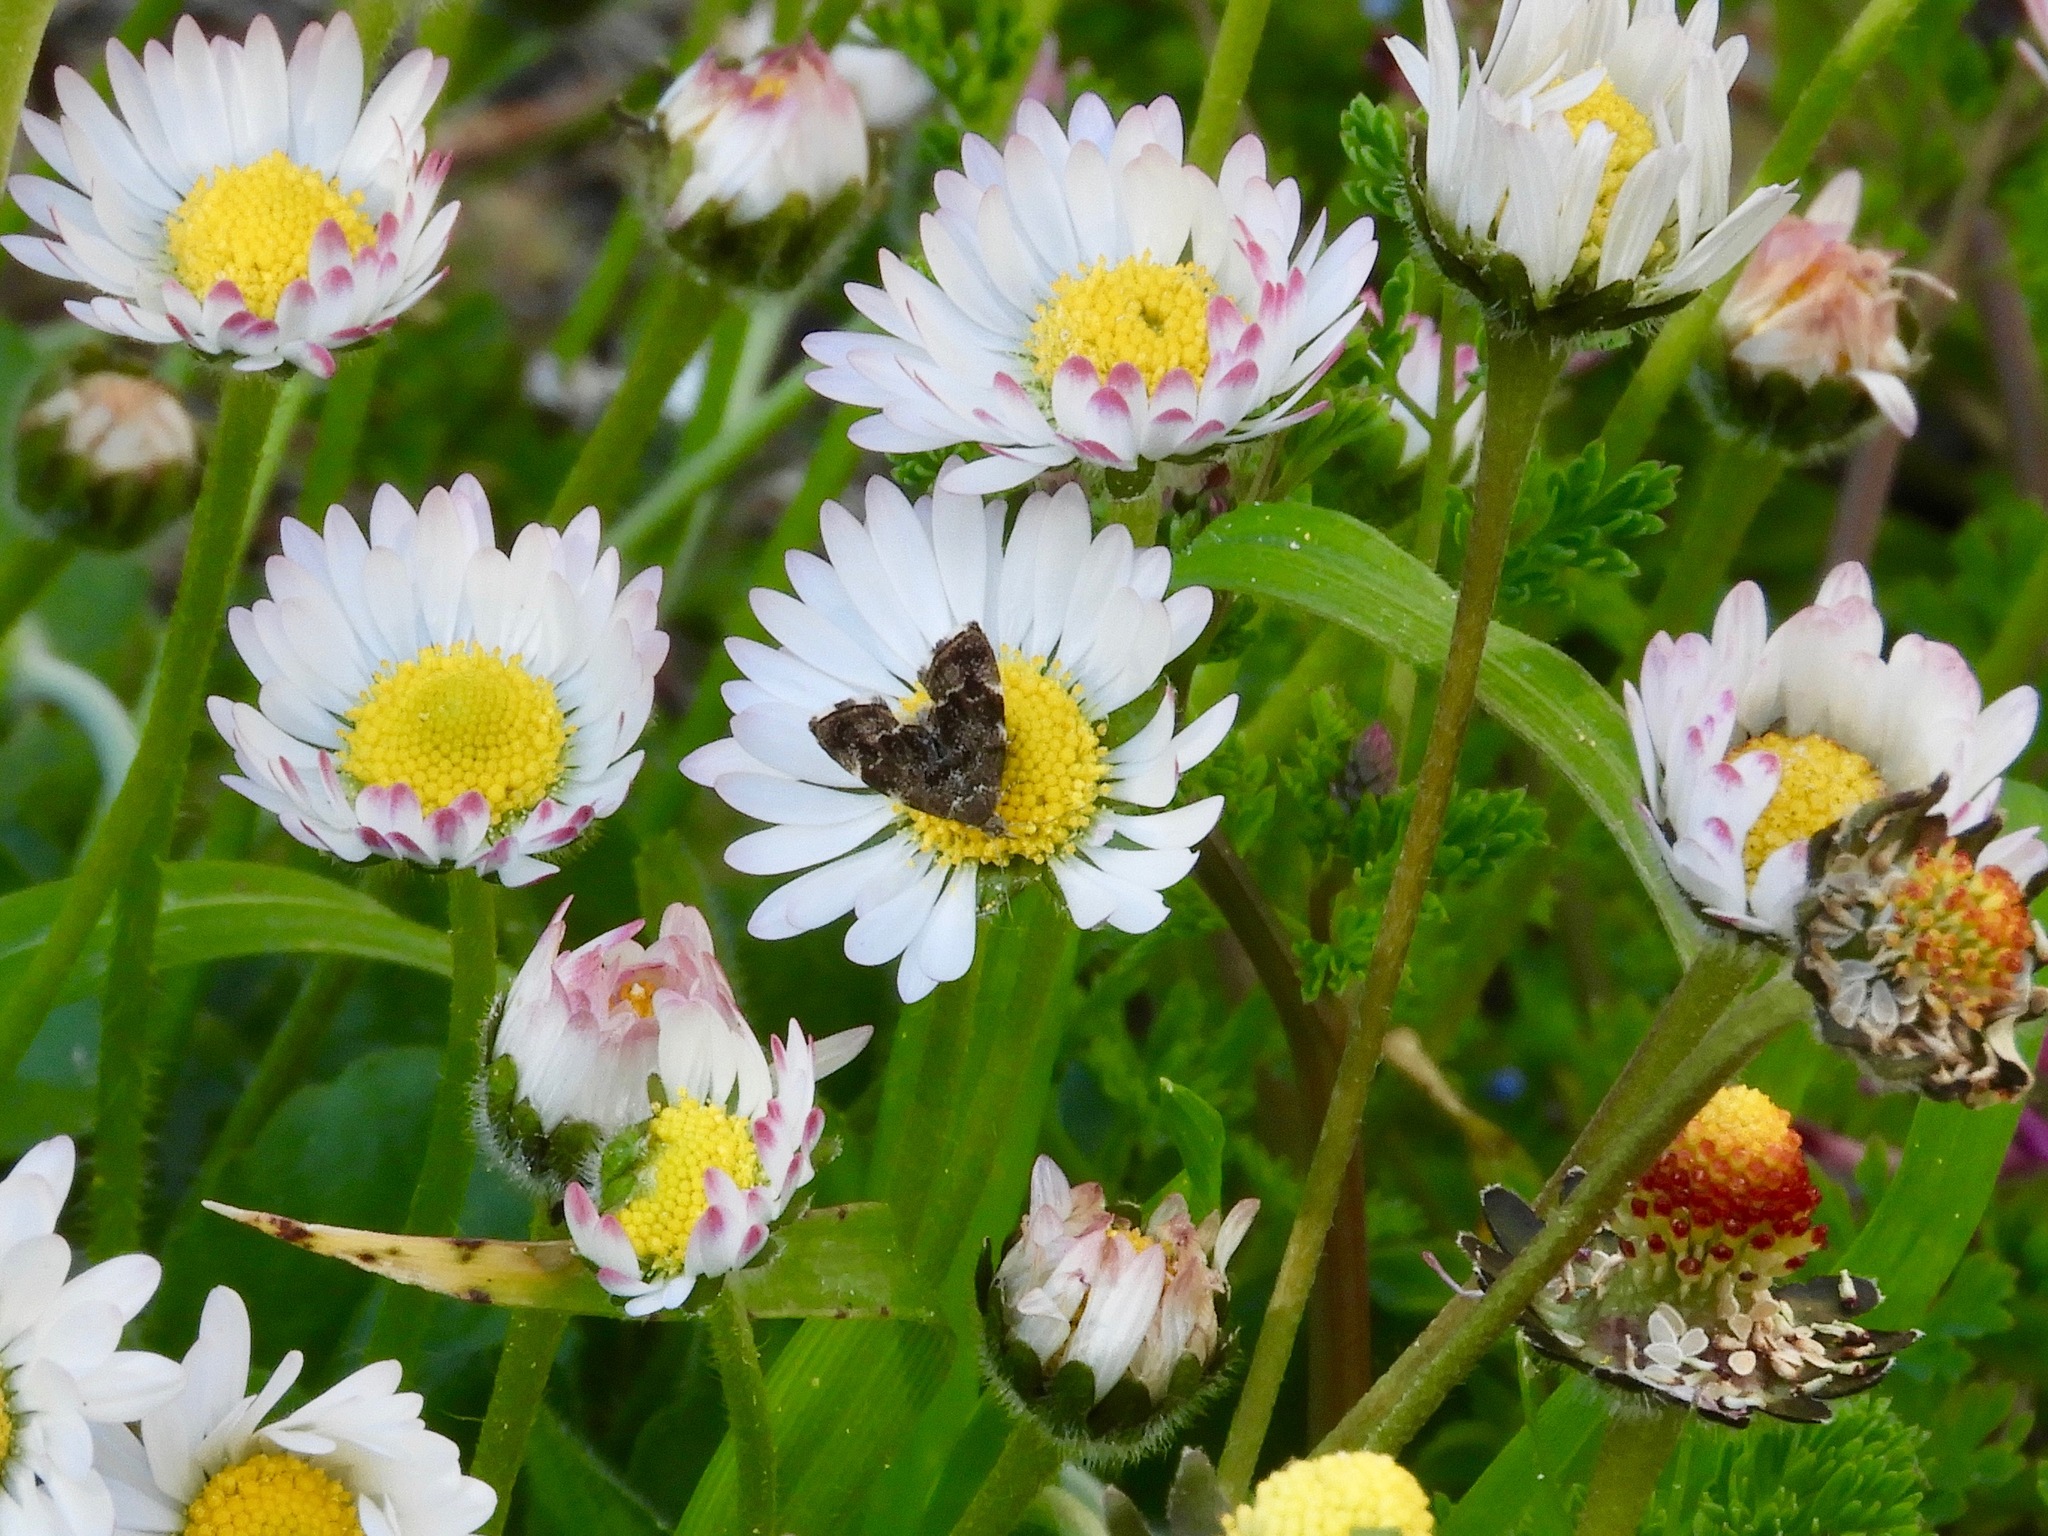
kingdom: Animalia
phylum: Arthropoda
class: Insecta
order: Lepidoptera
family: Choreutidae
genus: Anthophila
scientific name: Anthophila fabriciana
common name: Nettle-tap
